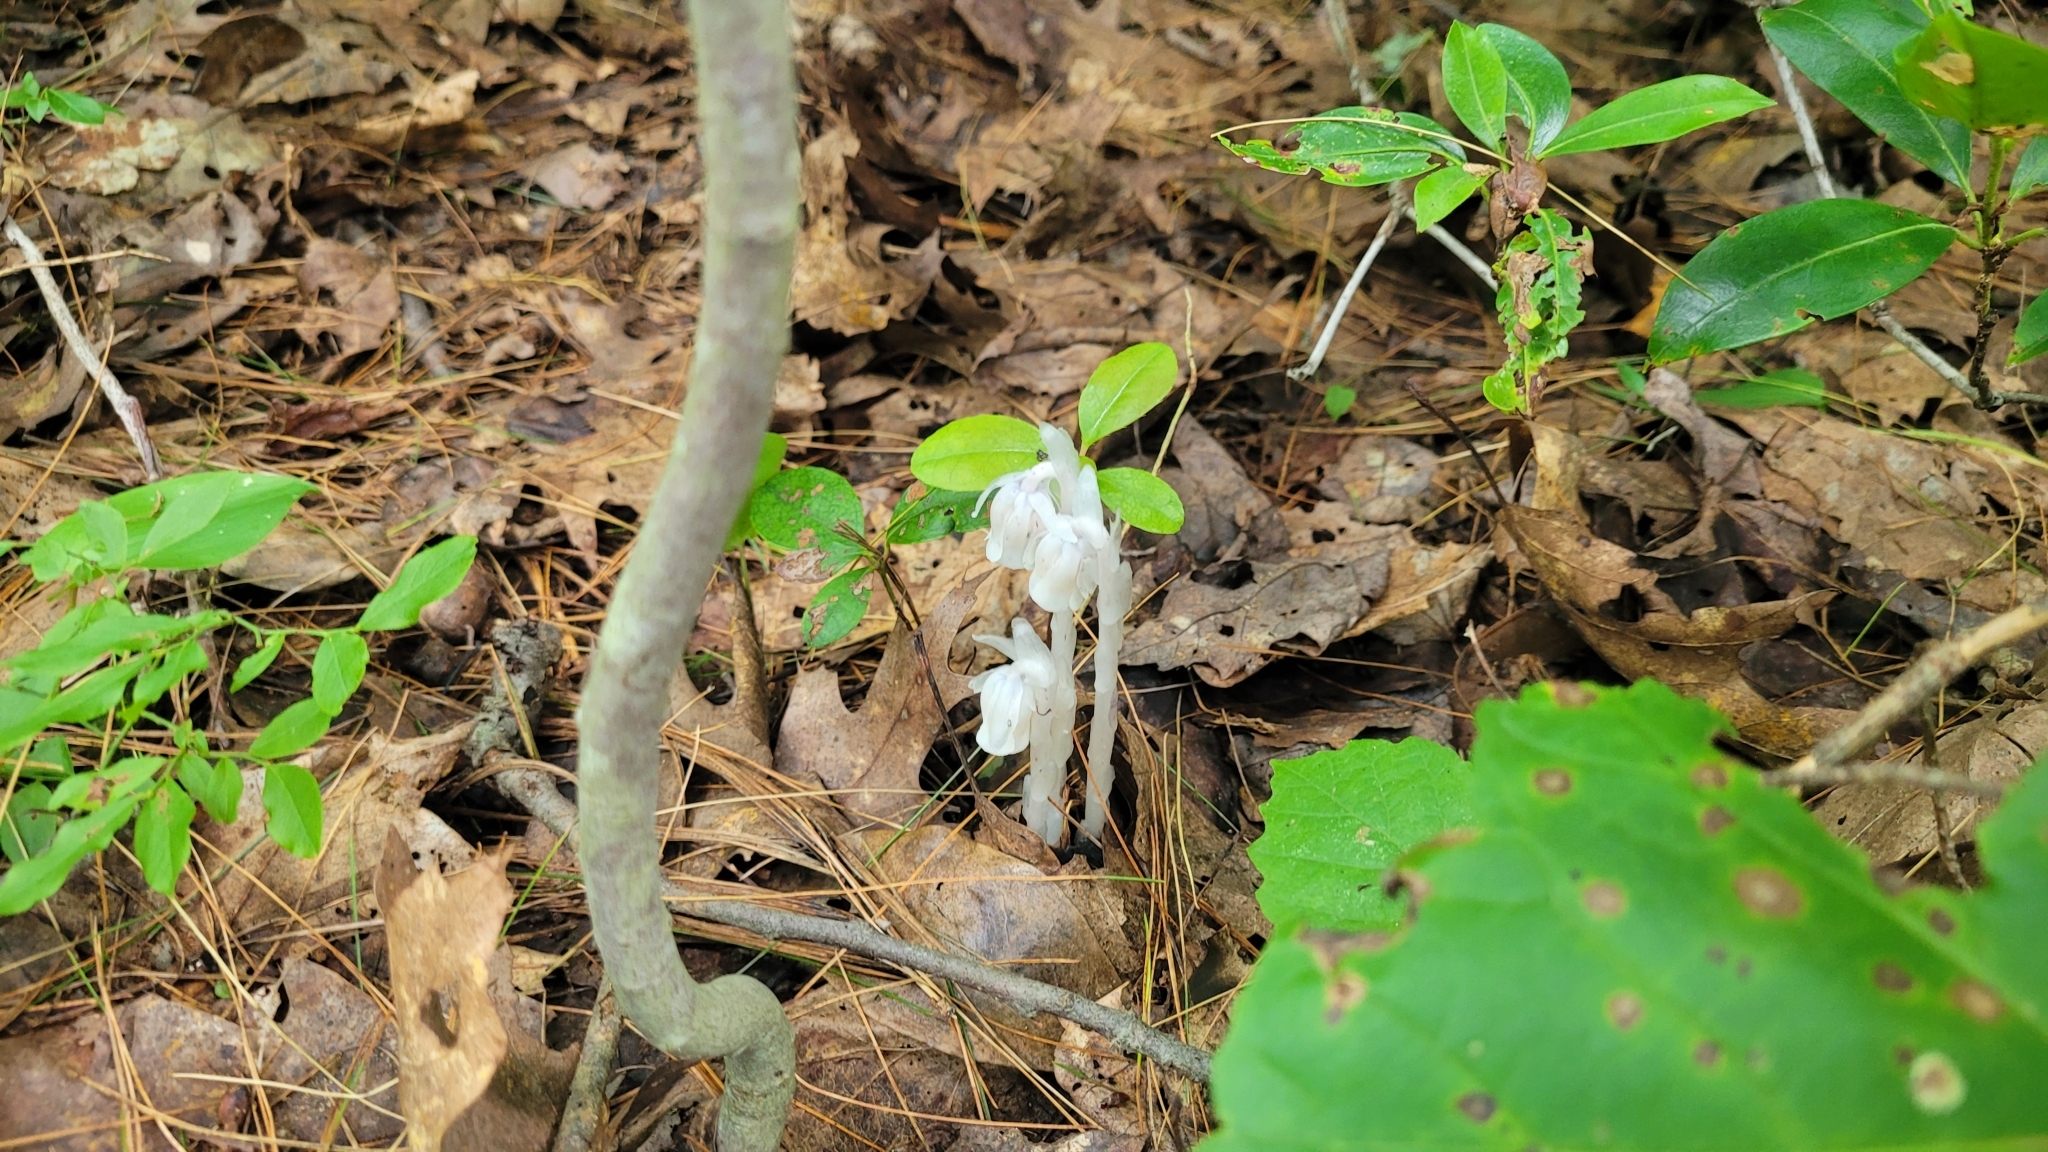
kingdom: Plantae
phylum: Tracheophyta
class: Magnoliopsida
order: Ericales
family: Ericaceae
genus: Monotropa
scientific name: Monotropa uniflora
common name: Convulsion root
